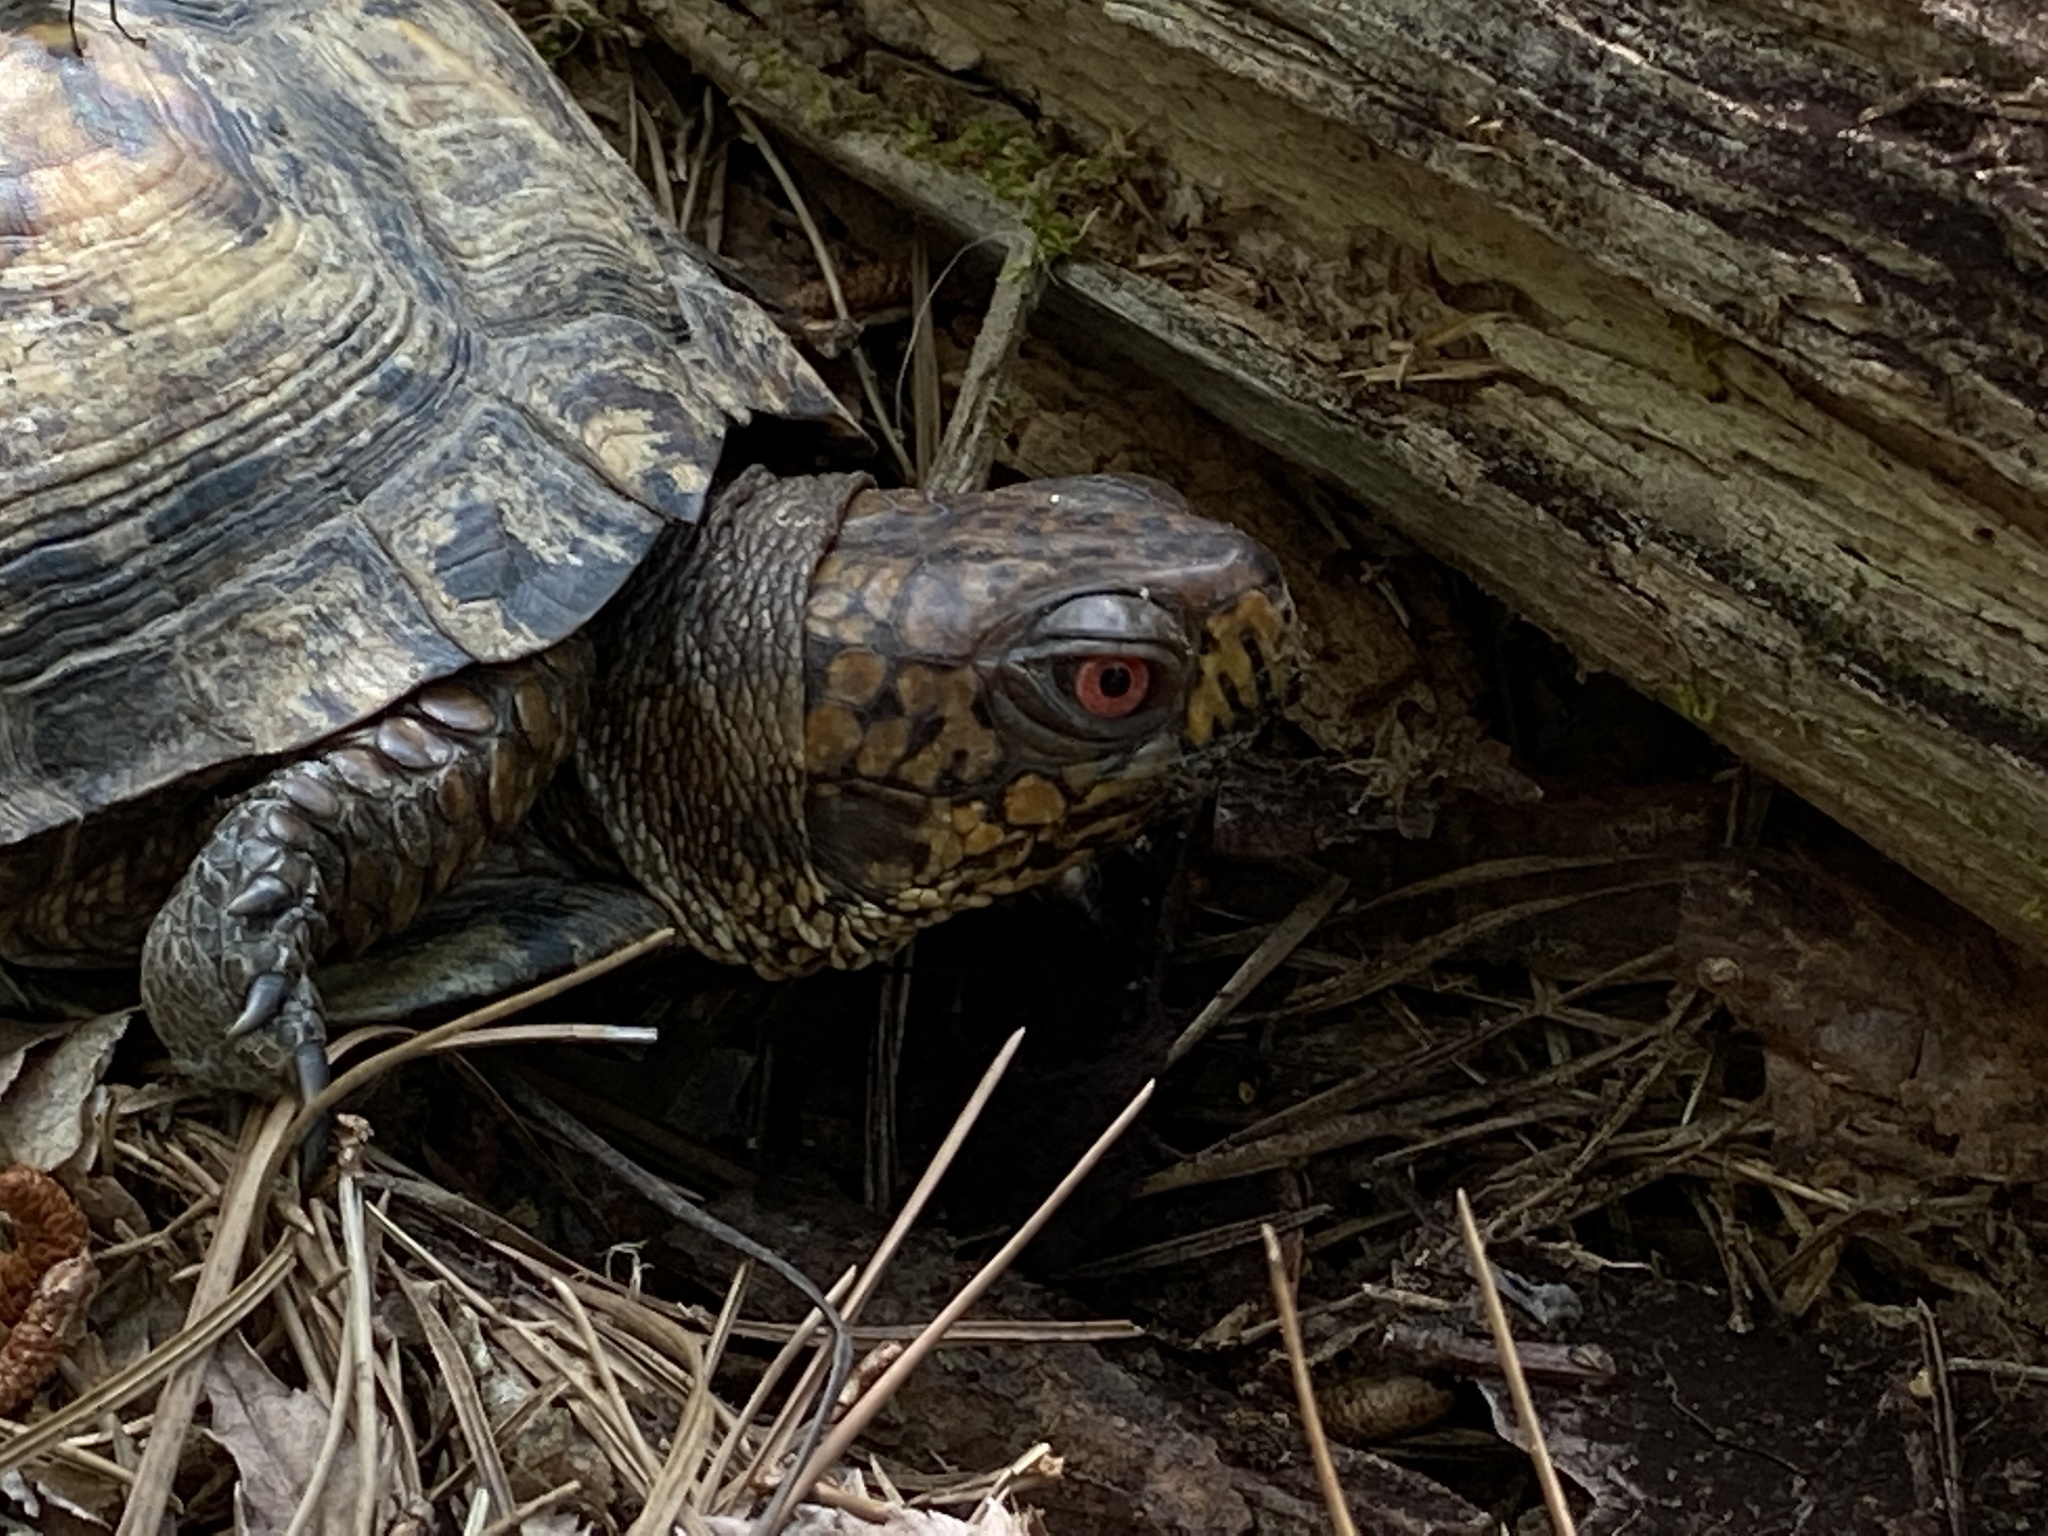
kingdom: Animalia
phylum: Chordata
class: Testudines
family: Emydidae
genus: Terrapene
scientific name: Terrapene carolina
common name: Common box turtle
